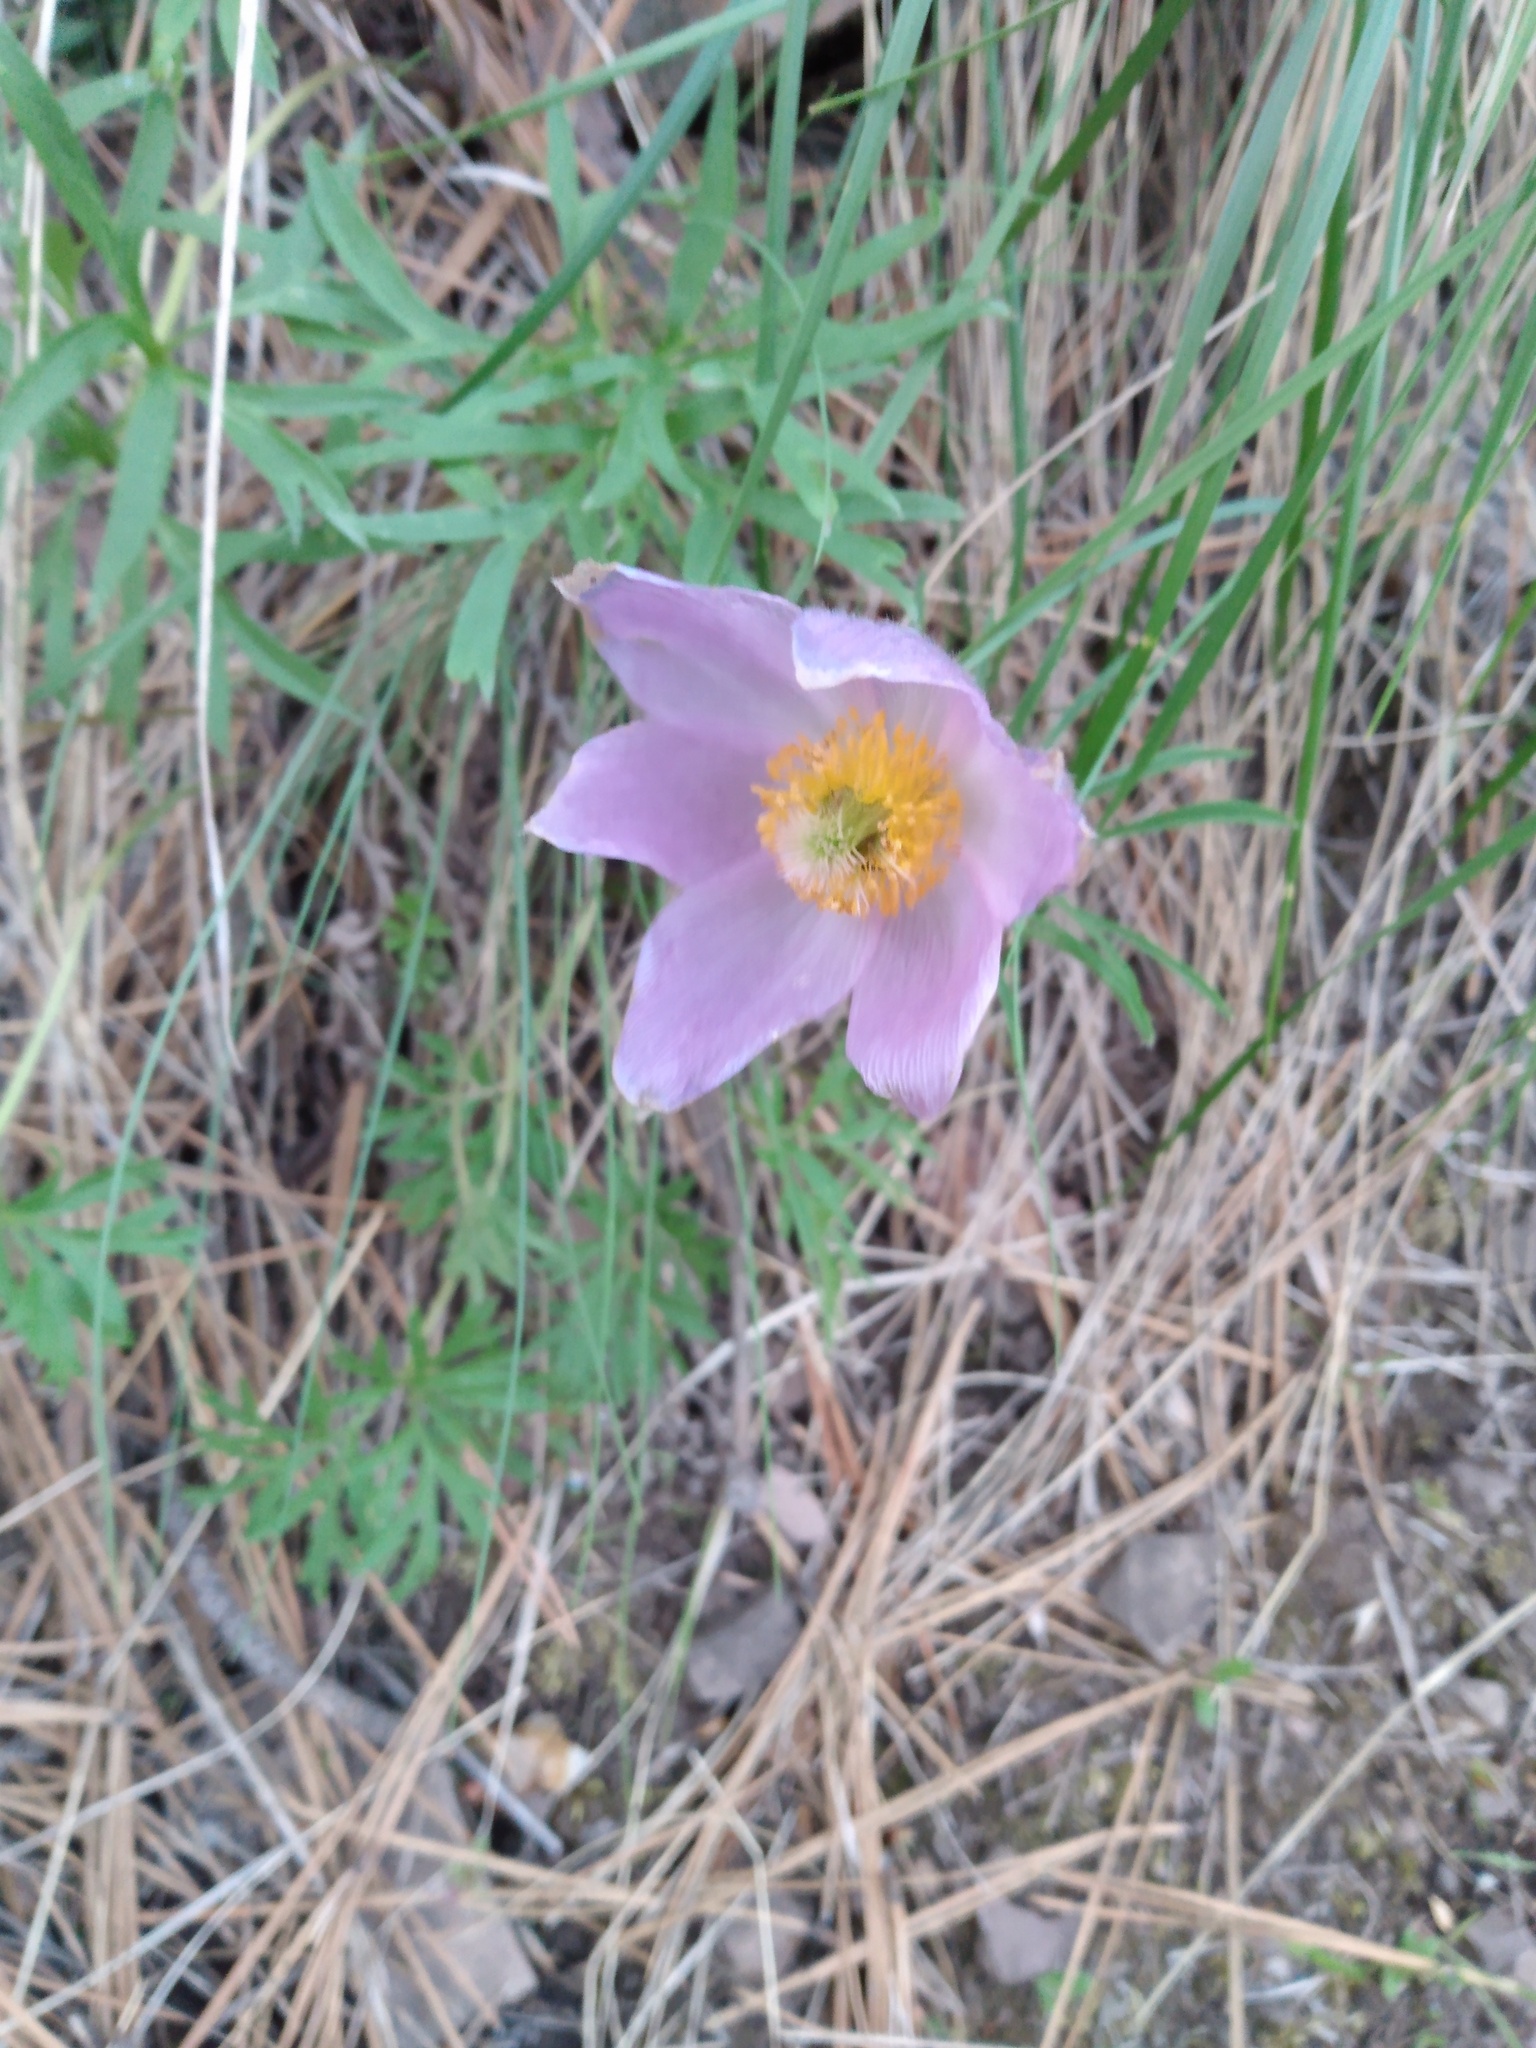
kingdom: Plantae
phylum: Tracheophyta
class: Magnoliopsida
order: Ranunculales
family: Ranunculaceae
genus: Pulsatilla
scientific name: Pulsatilla nuttalliana
